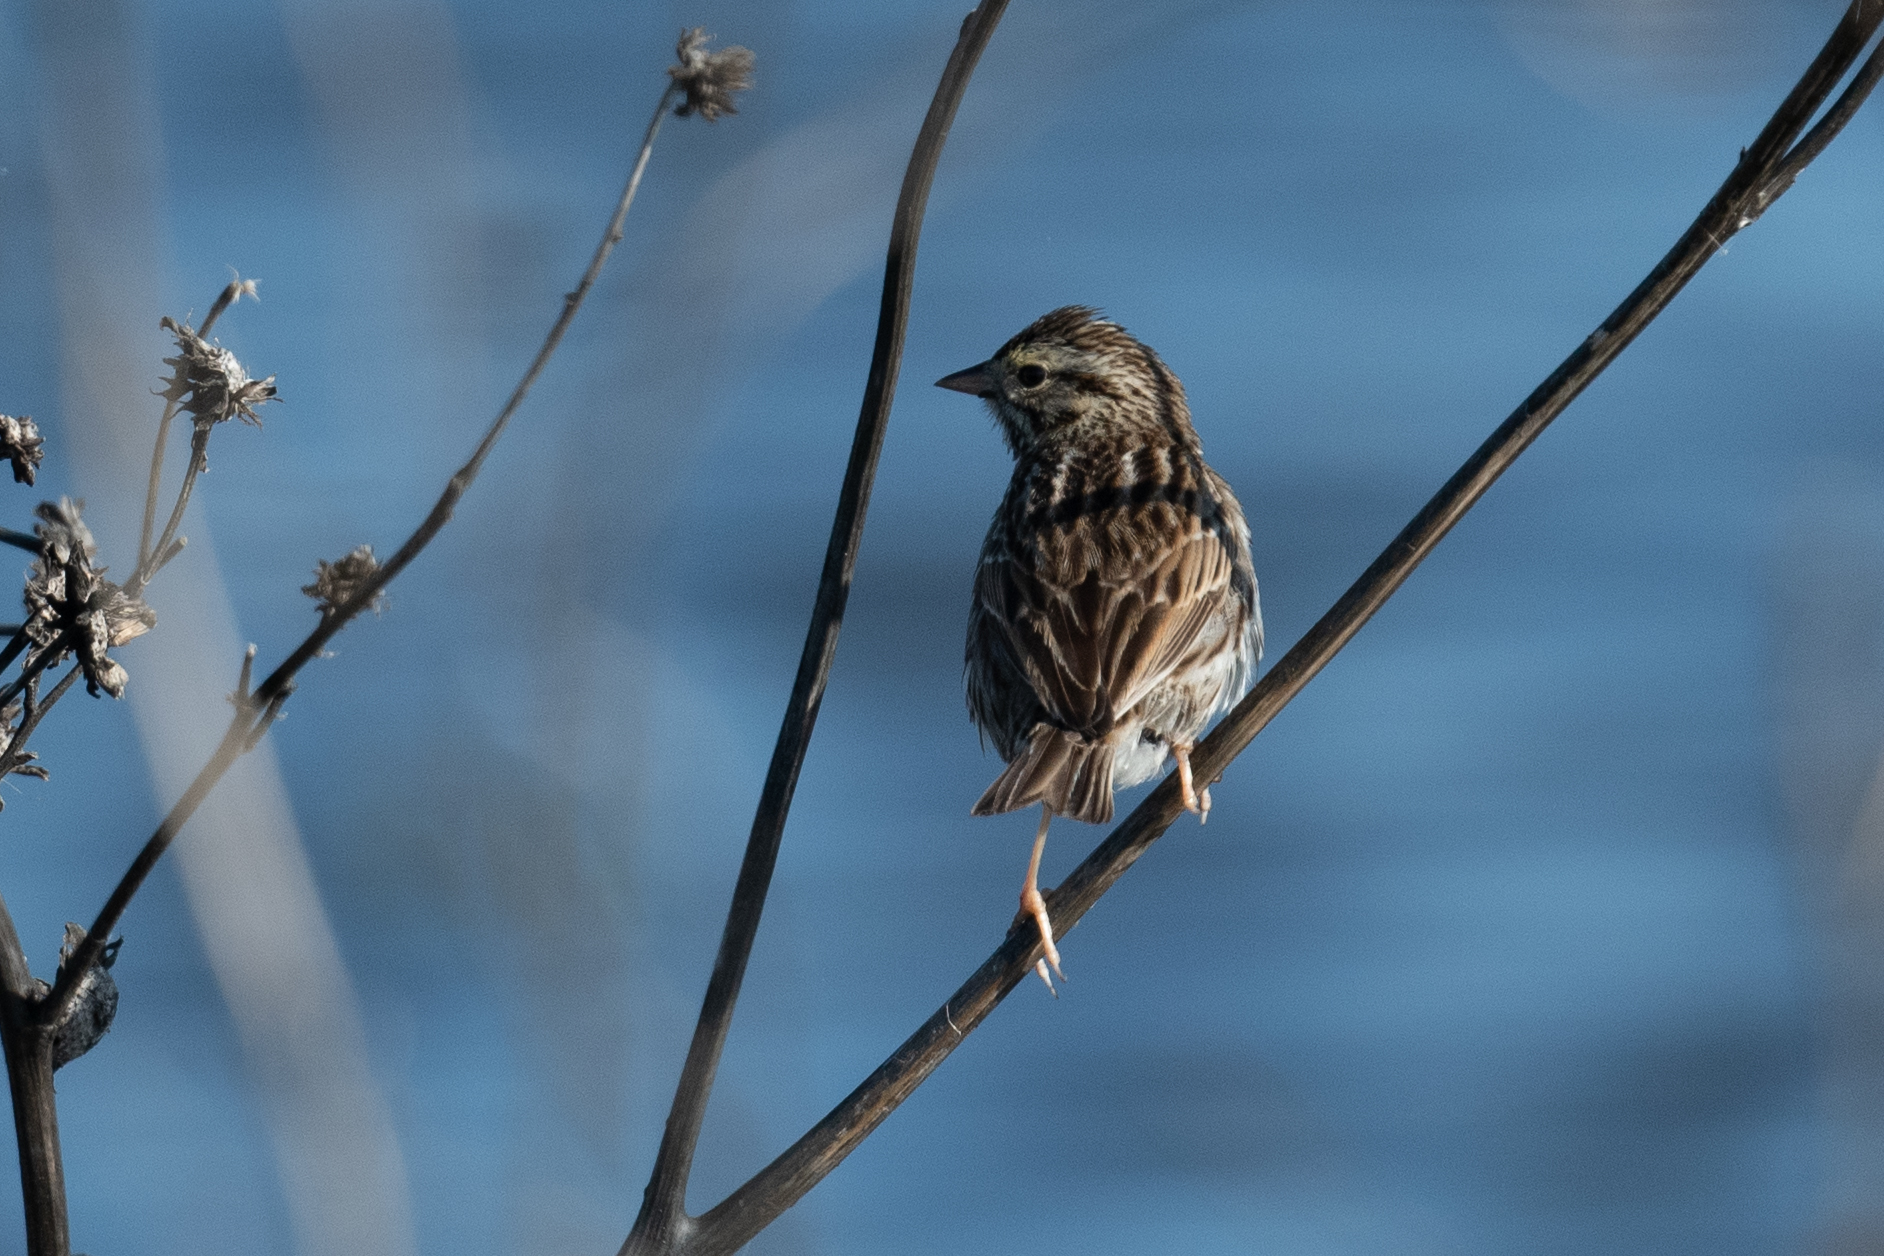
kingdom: Animalia
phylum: Chordata
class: Aves
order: Passeriformes
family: Passerellidae
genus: Passerculus
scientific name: Passerculus sandwichensis
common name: Savannah sparrow
